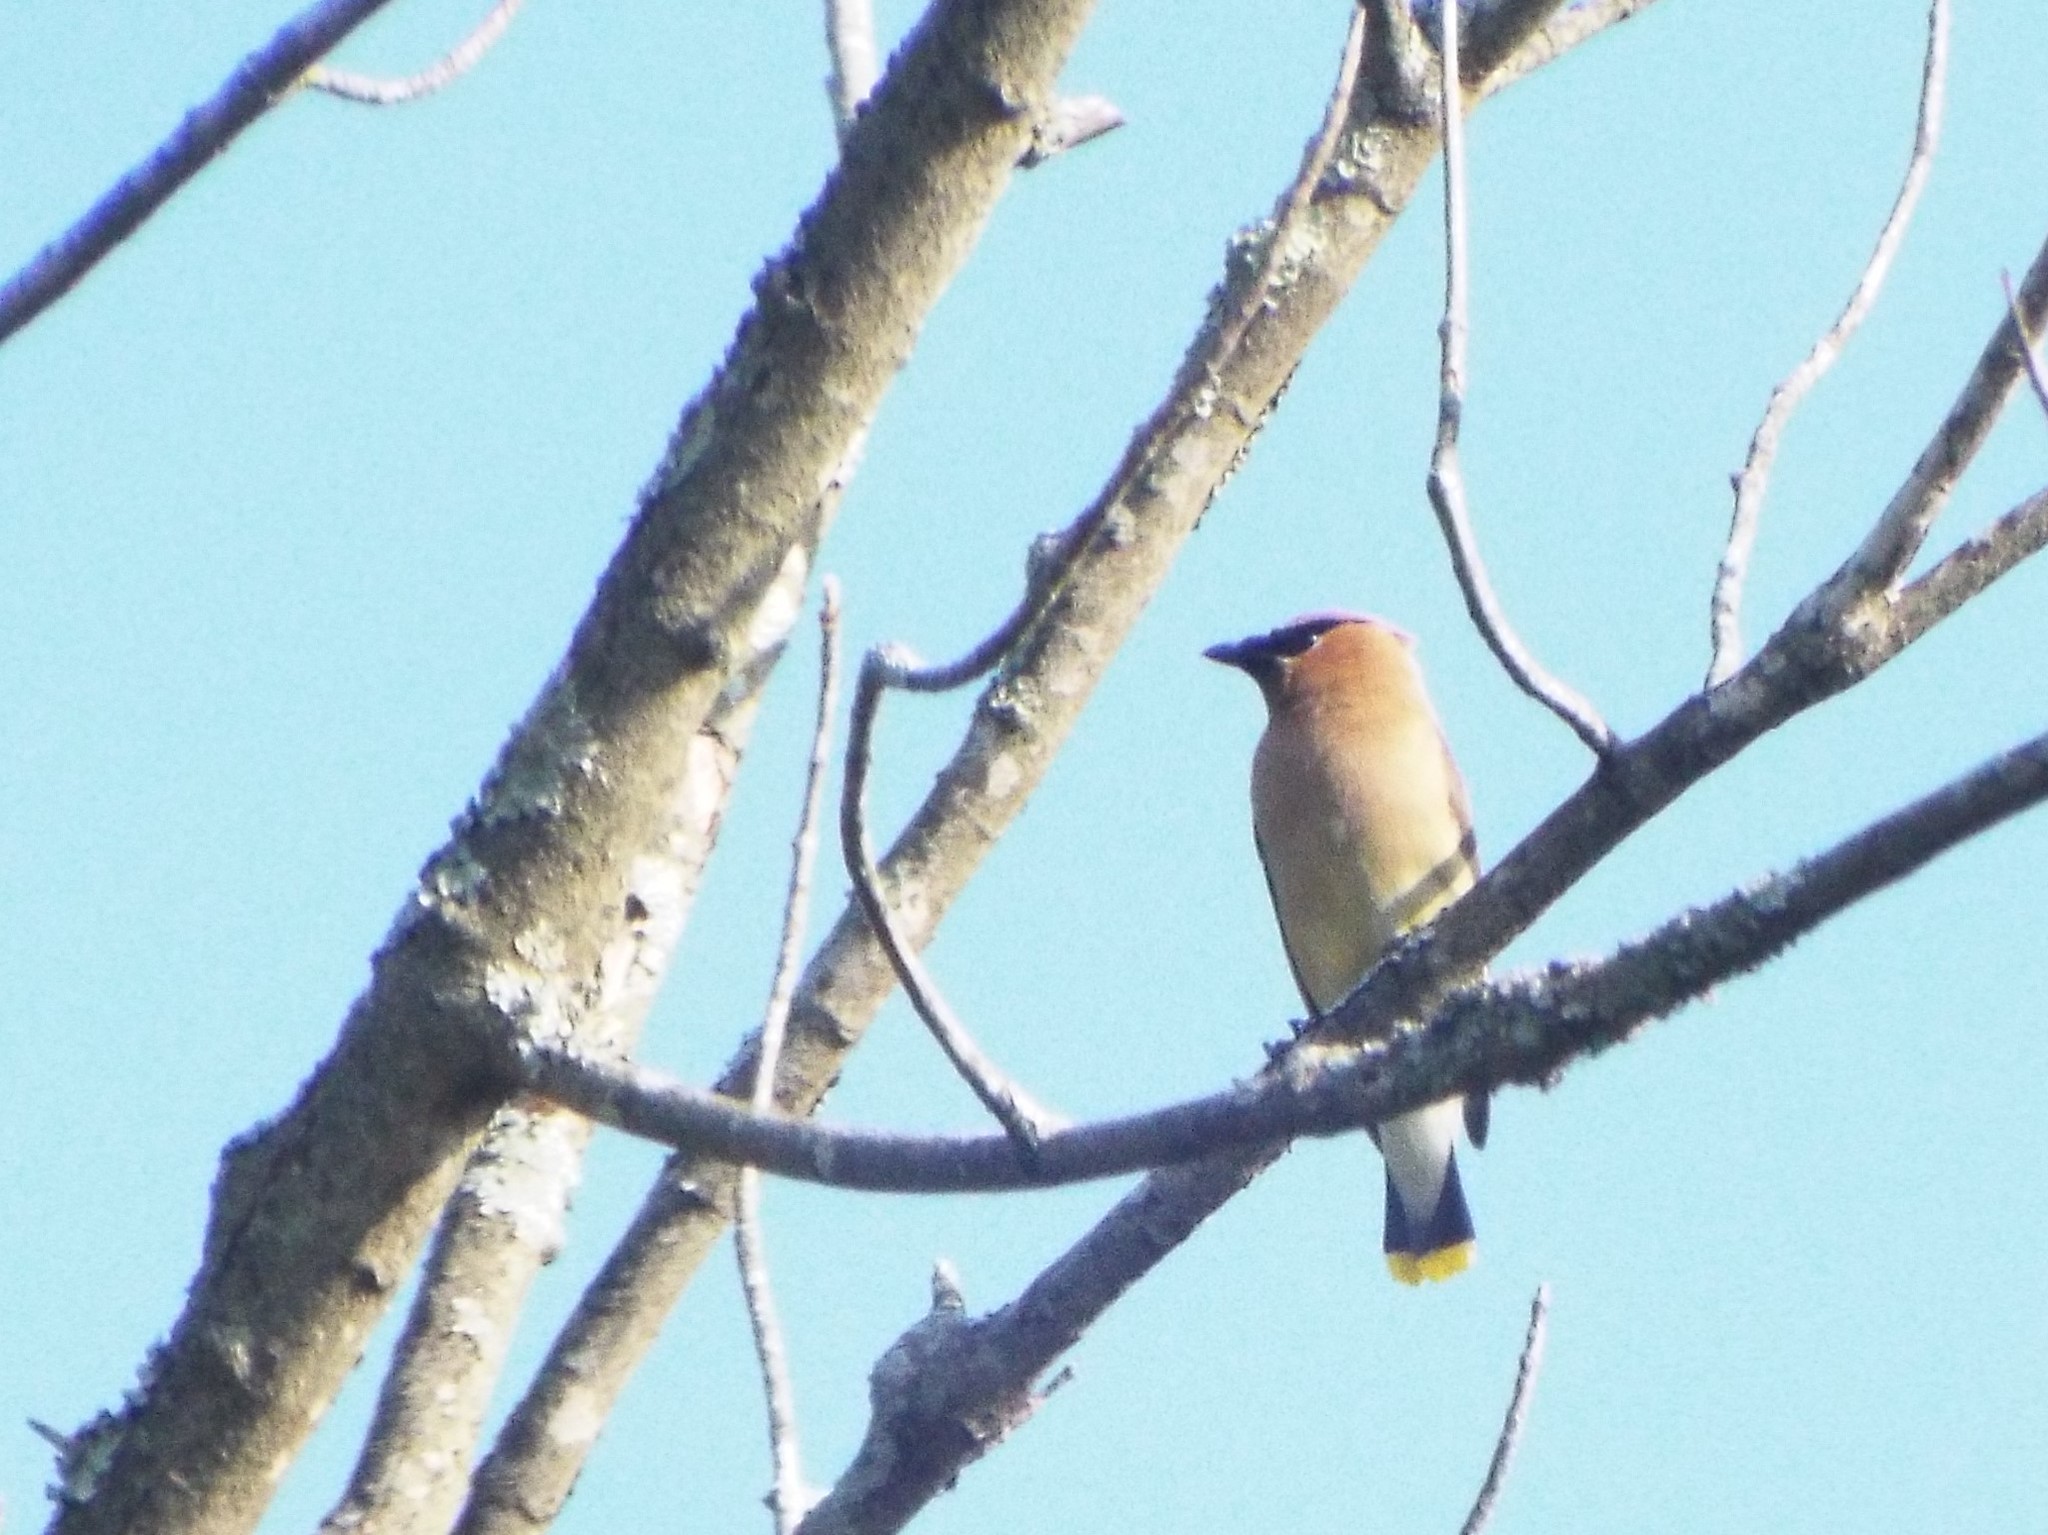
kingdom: Animalia
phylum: Chordata
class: Aves
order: Passeriformes
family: Bombycillidae
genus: Bombycilla
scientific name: Bombycilla cedrorum
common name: Cedar waxwing
